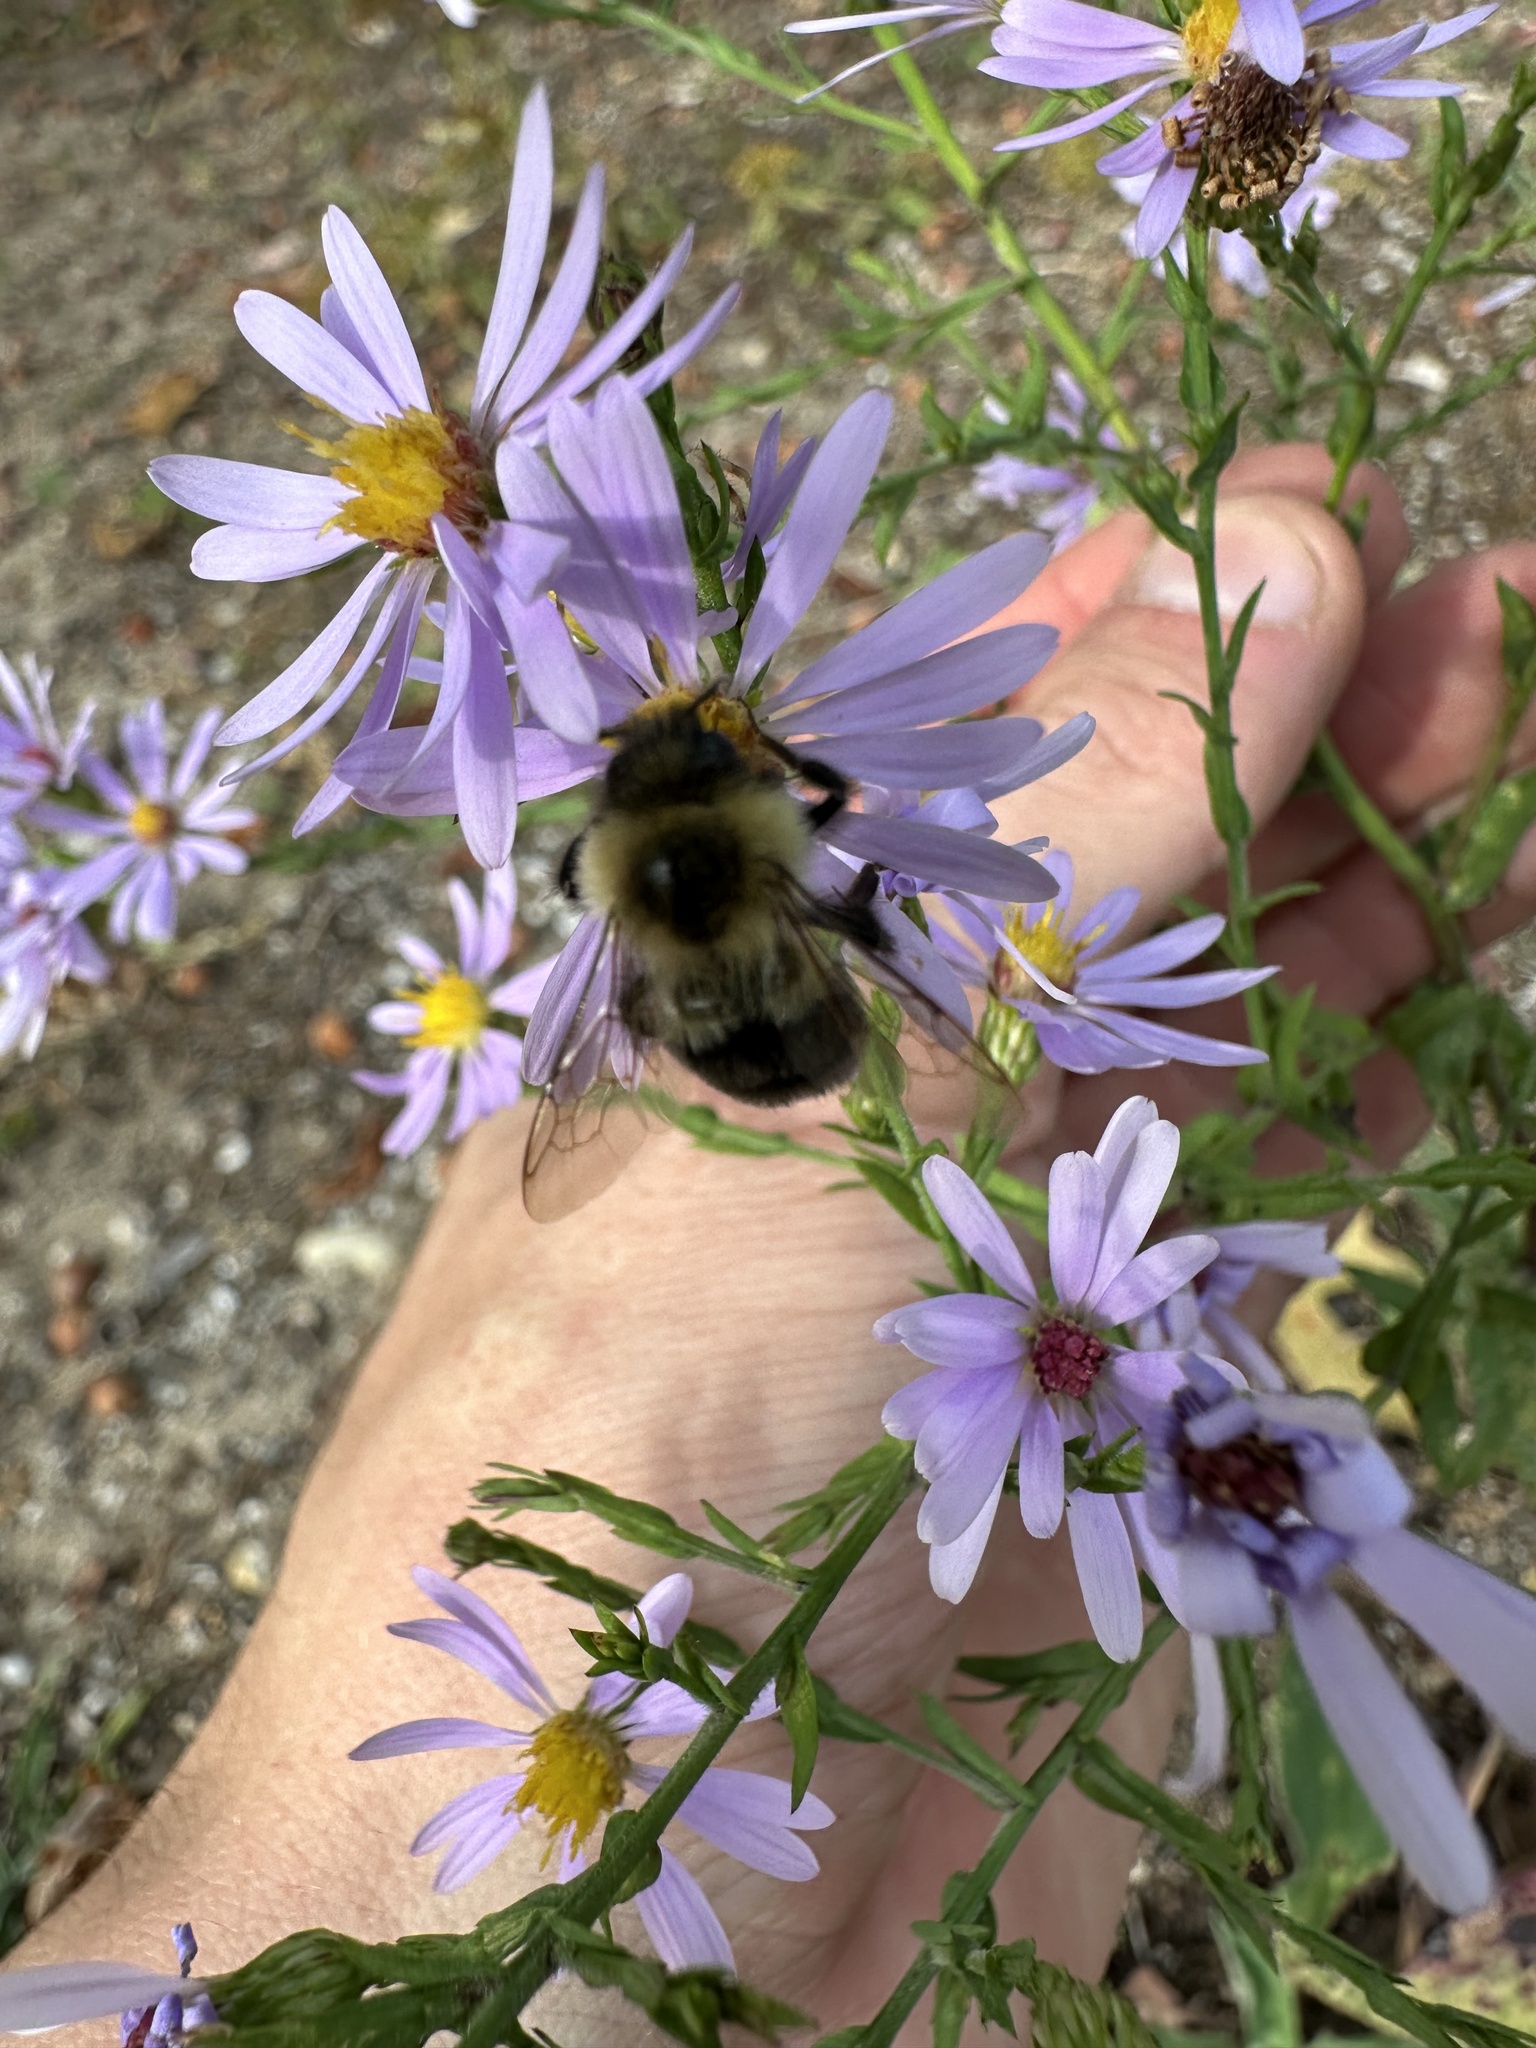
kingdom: Animalia
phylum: Arthropoda
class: Insecta
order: Hymenoptera
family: Apidae
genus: Bombus
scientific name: Bombus impatiens
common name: Common eastern bumble bee
